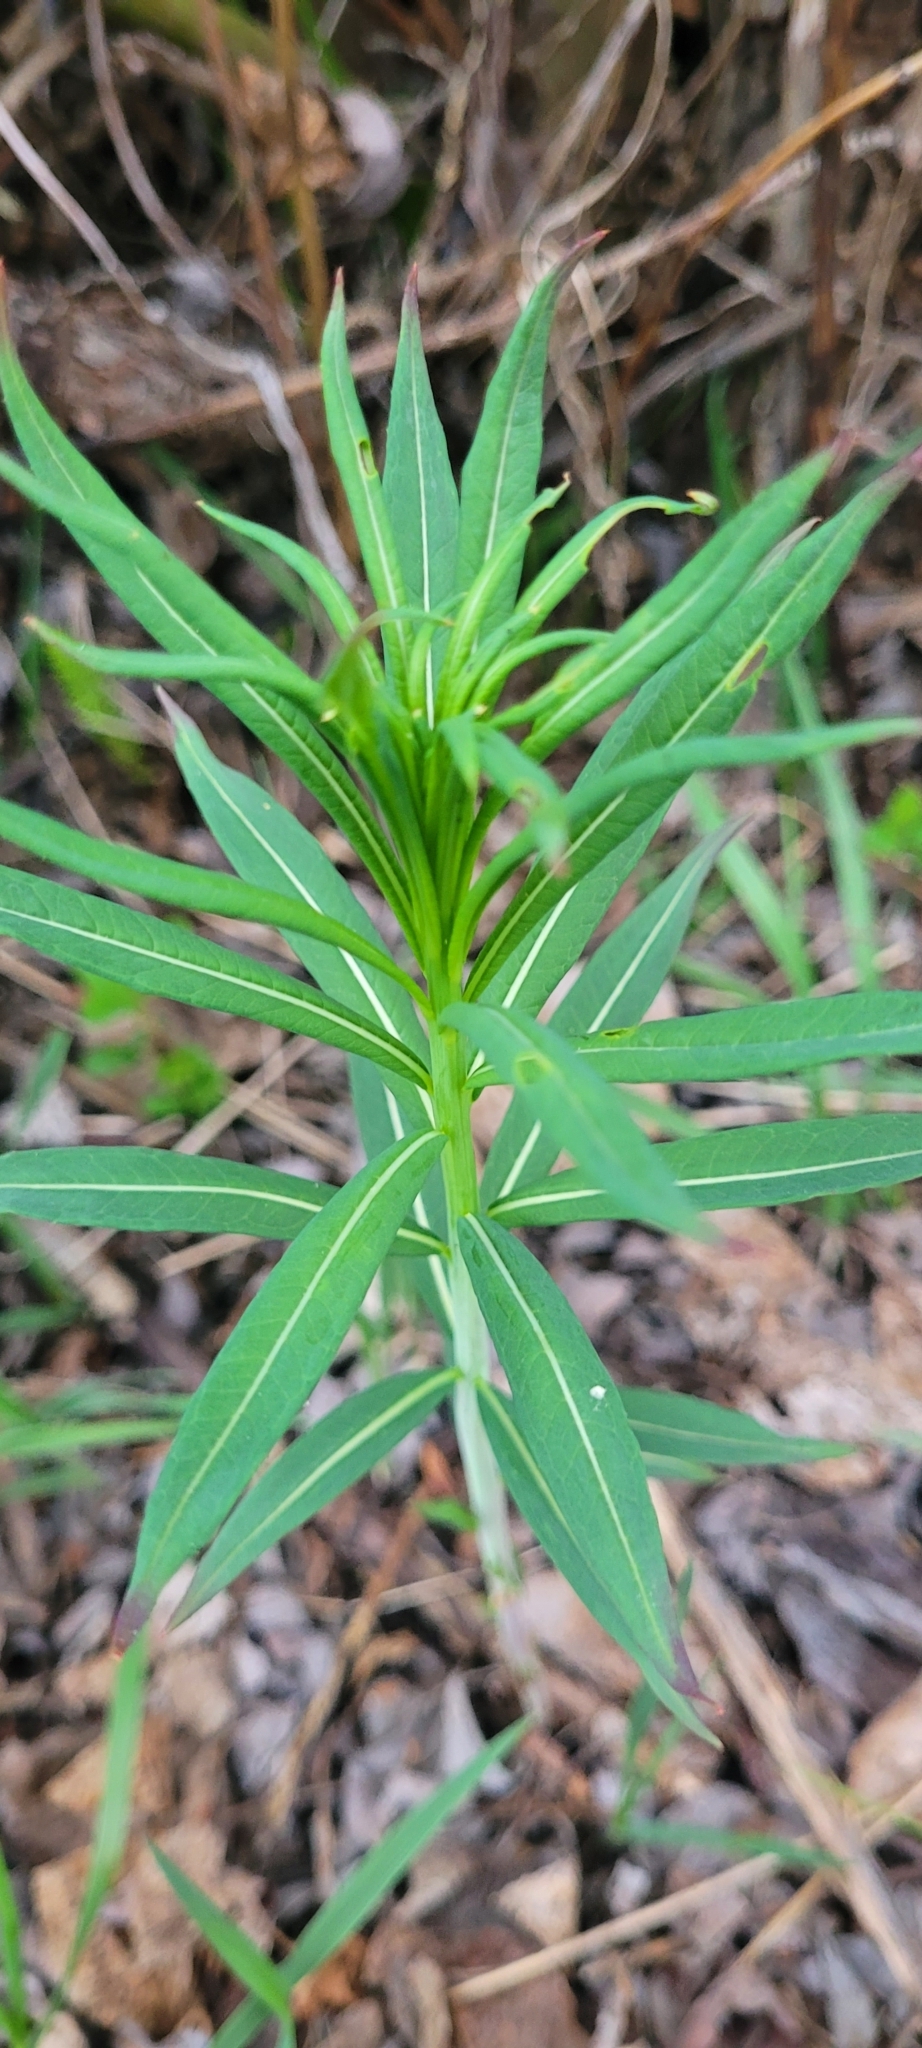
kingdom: Plantae
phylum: Tracheophyta
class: Magnoliopsida
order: Myrtales
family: Onagraceae
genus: Chamaenerion
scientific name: Chamaenerion angustifolium
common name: Fireweed
